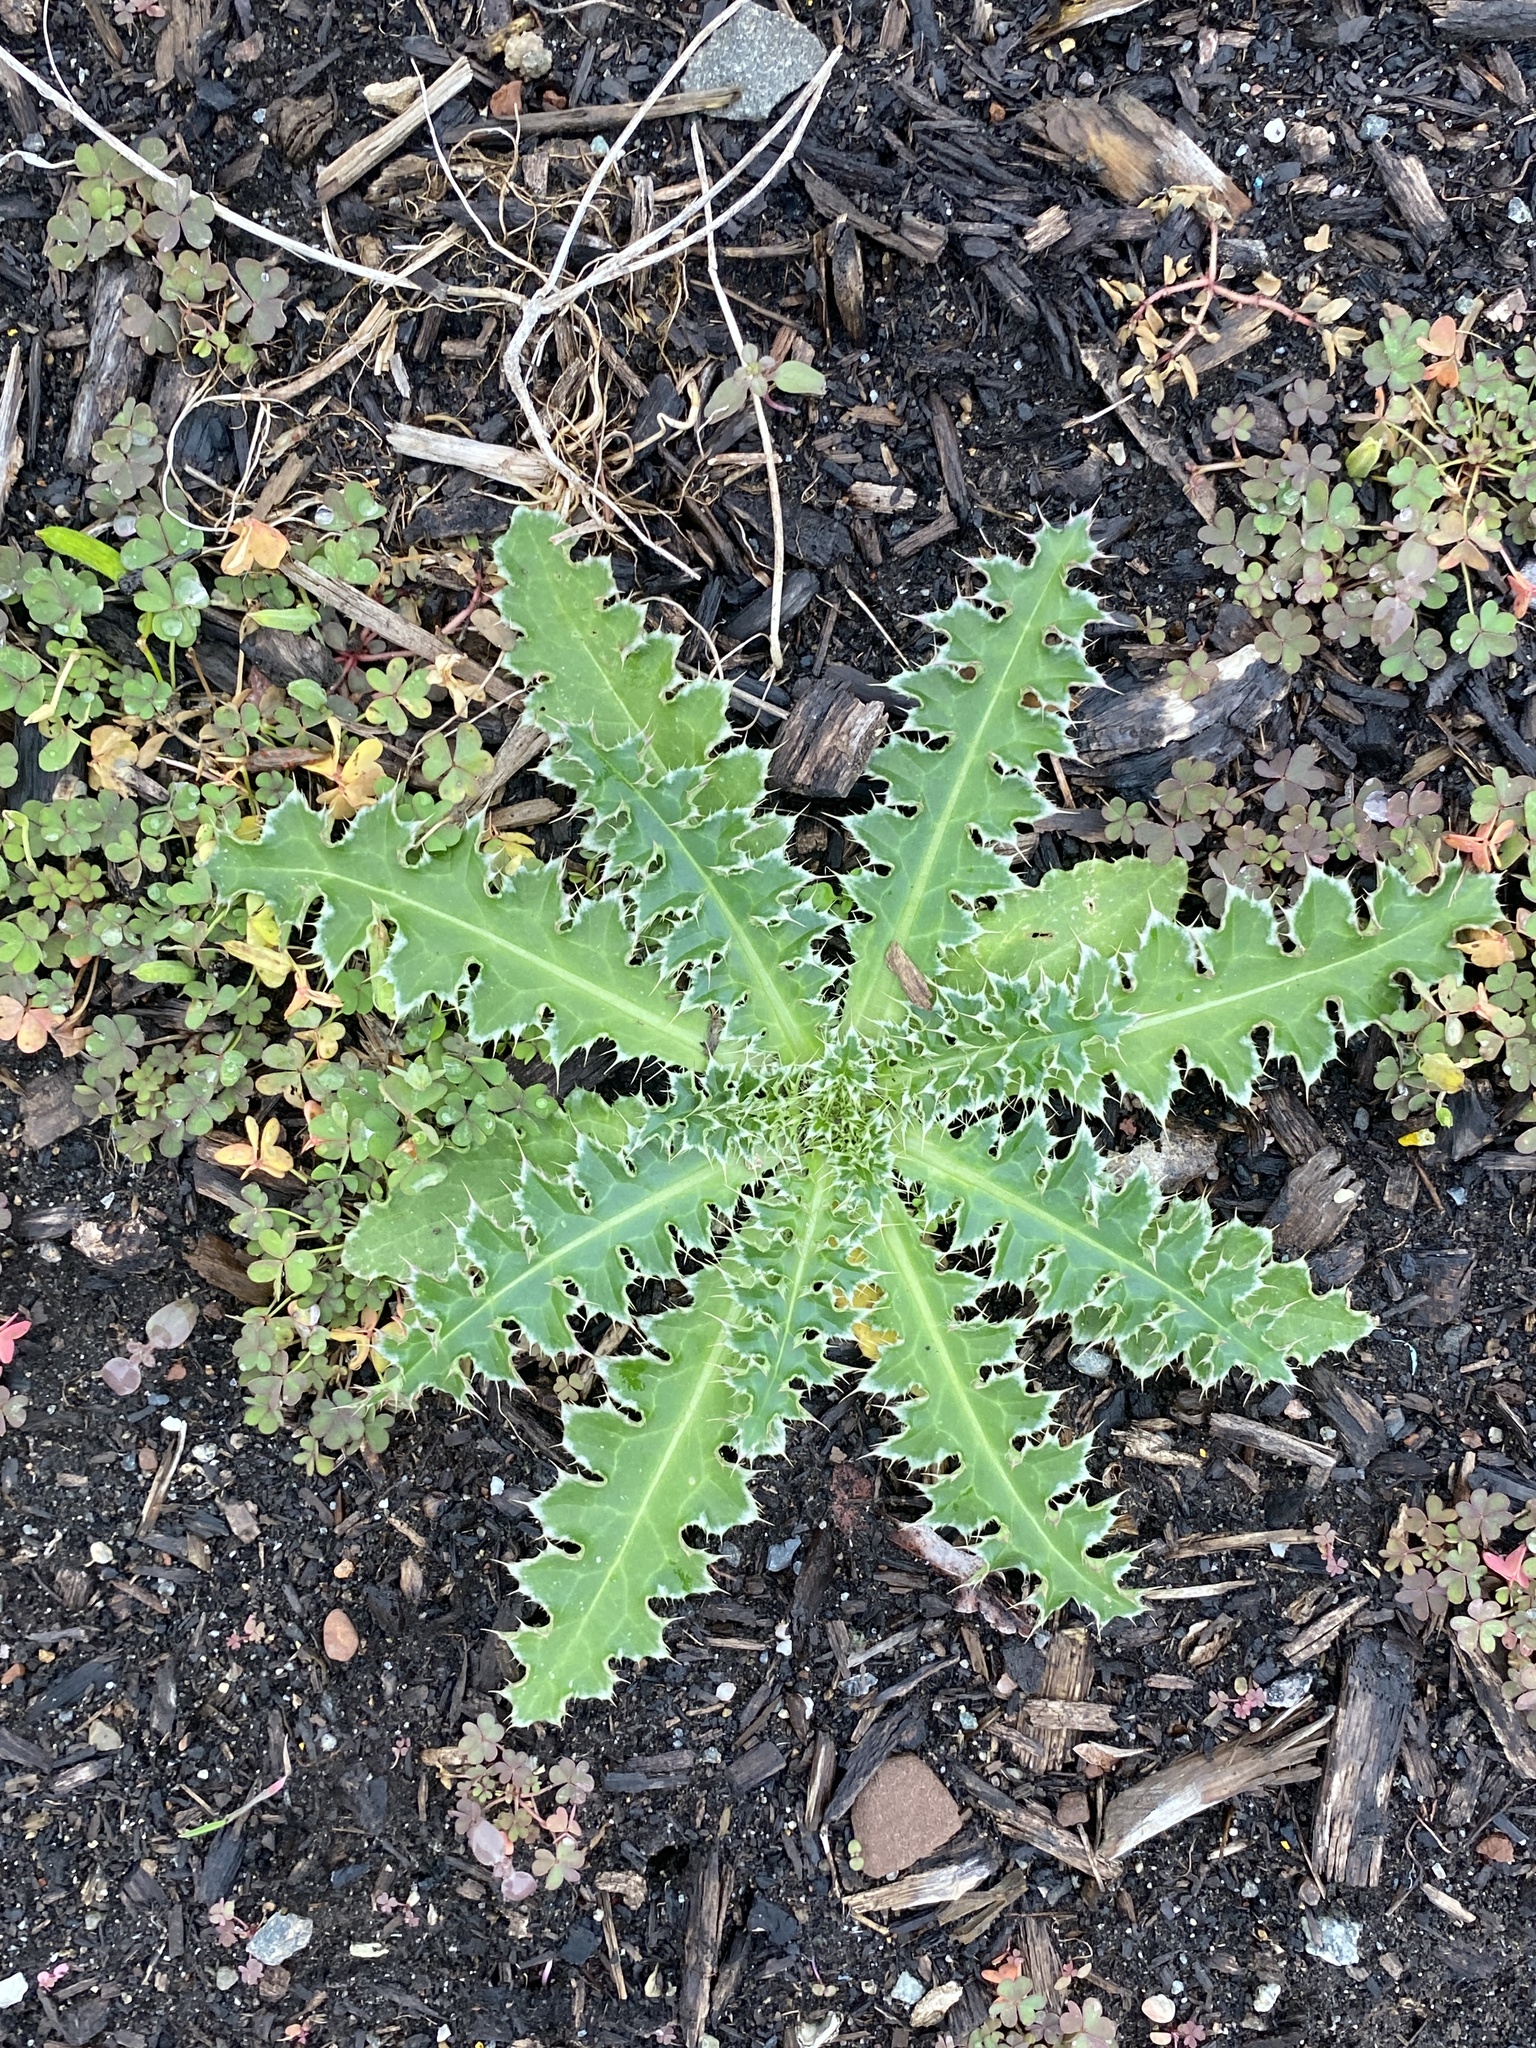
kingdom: Plantae
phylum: Tracheophyta
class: Magnoliopsida
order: Asterales
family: Asteraceae
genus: Carduus
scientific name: Carduus nutans
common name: Musk thistle
